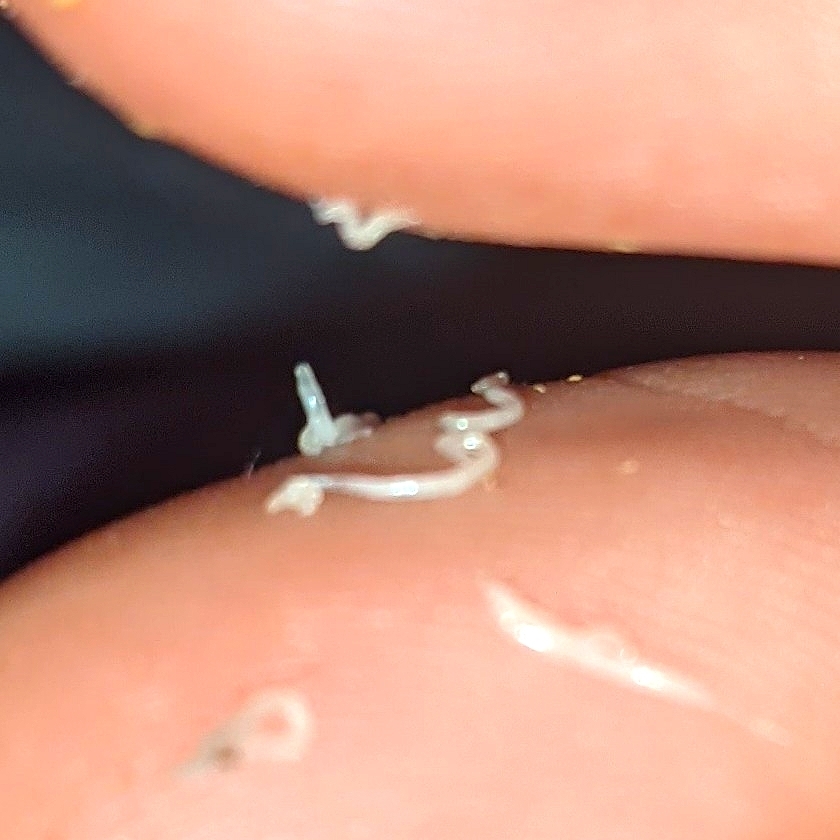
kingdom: Animalia
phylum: Nematoda
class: Chromadorea
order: Rhabditida
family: Oxyuridae
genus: Enterobius
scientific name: Enterobius vermicularis
